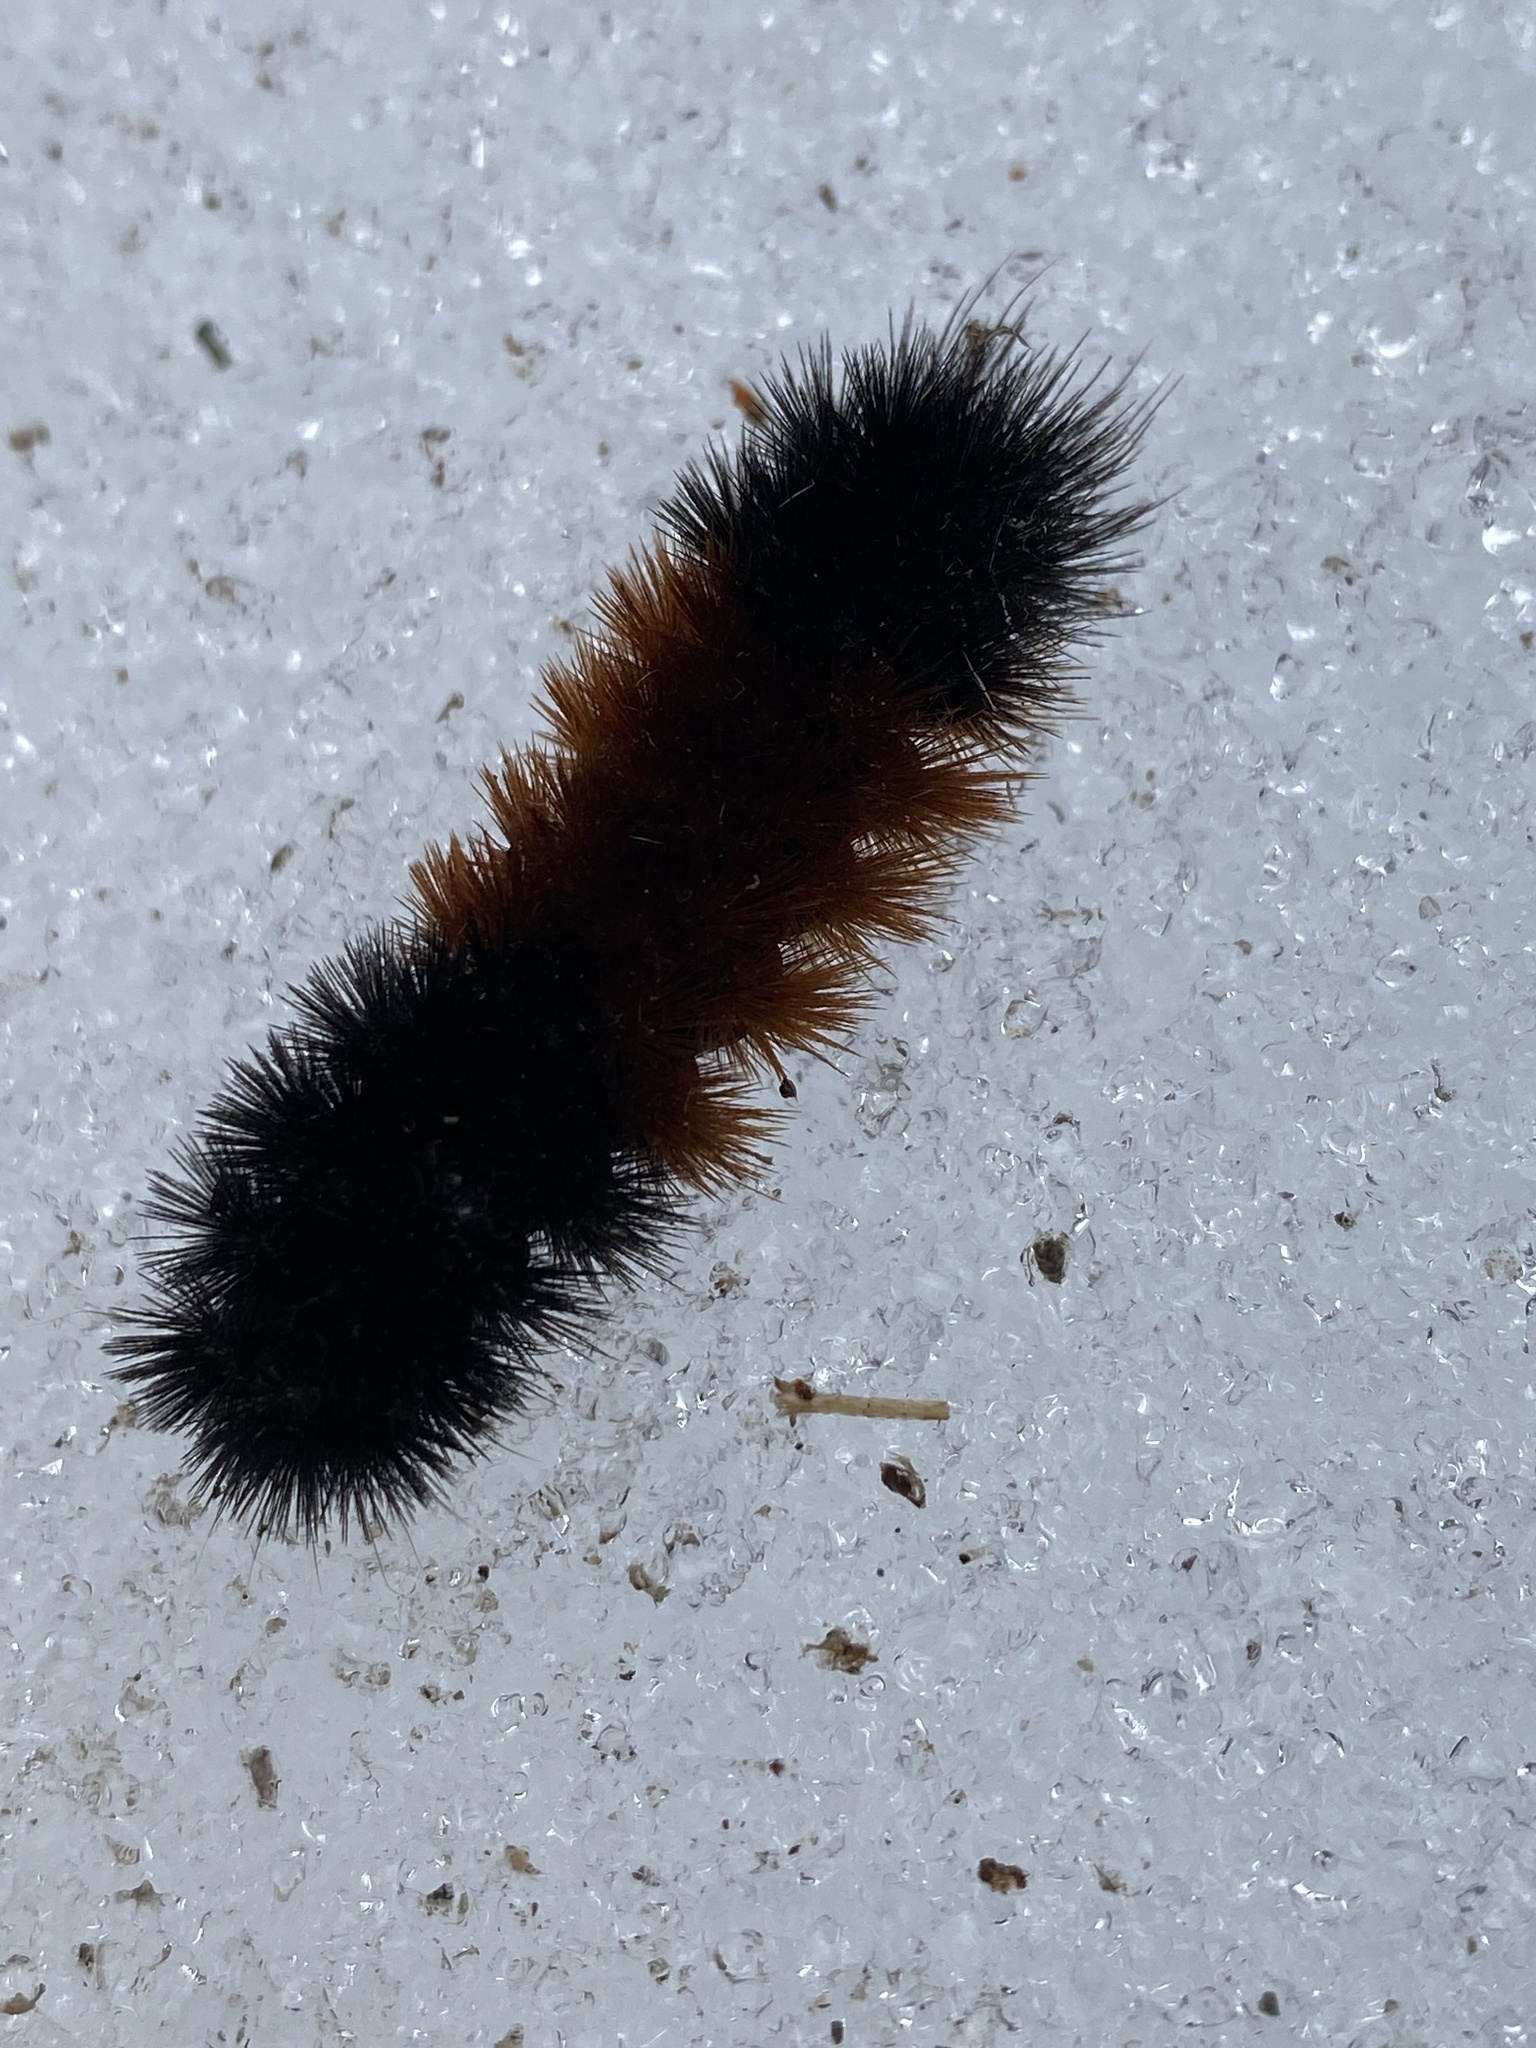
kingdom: Animalia
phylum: Arthropoda
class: Insecta
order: Lepidoptera
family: Erebidae
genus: Pyrrharctia
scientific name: Pyrrharctia isabella
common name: Isabella tiger moth
